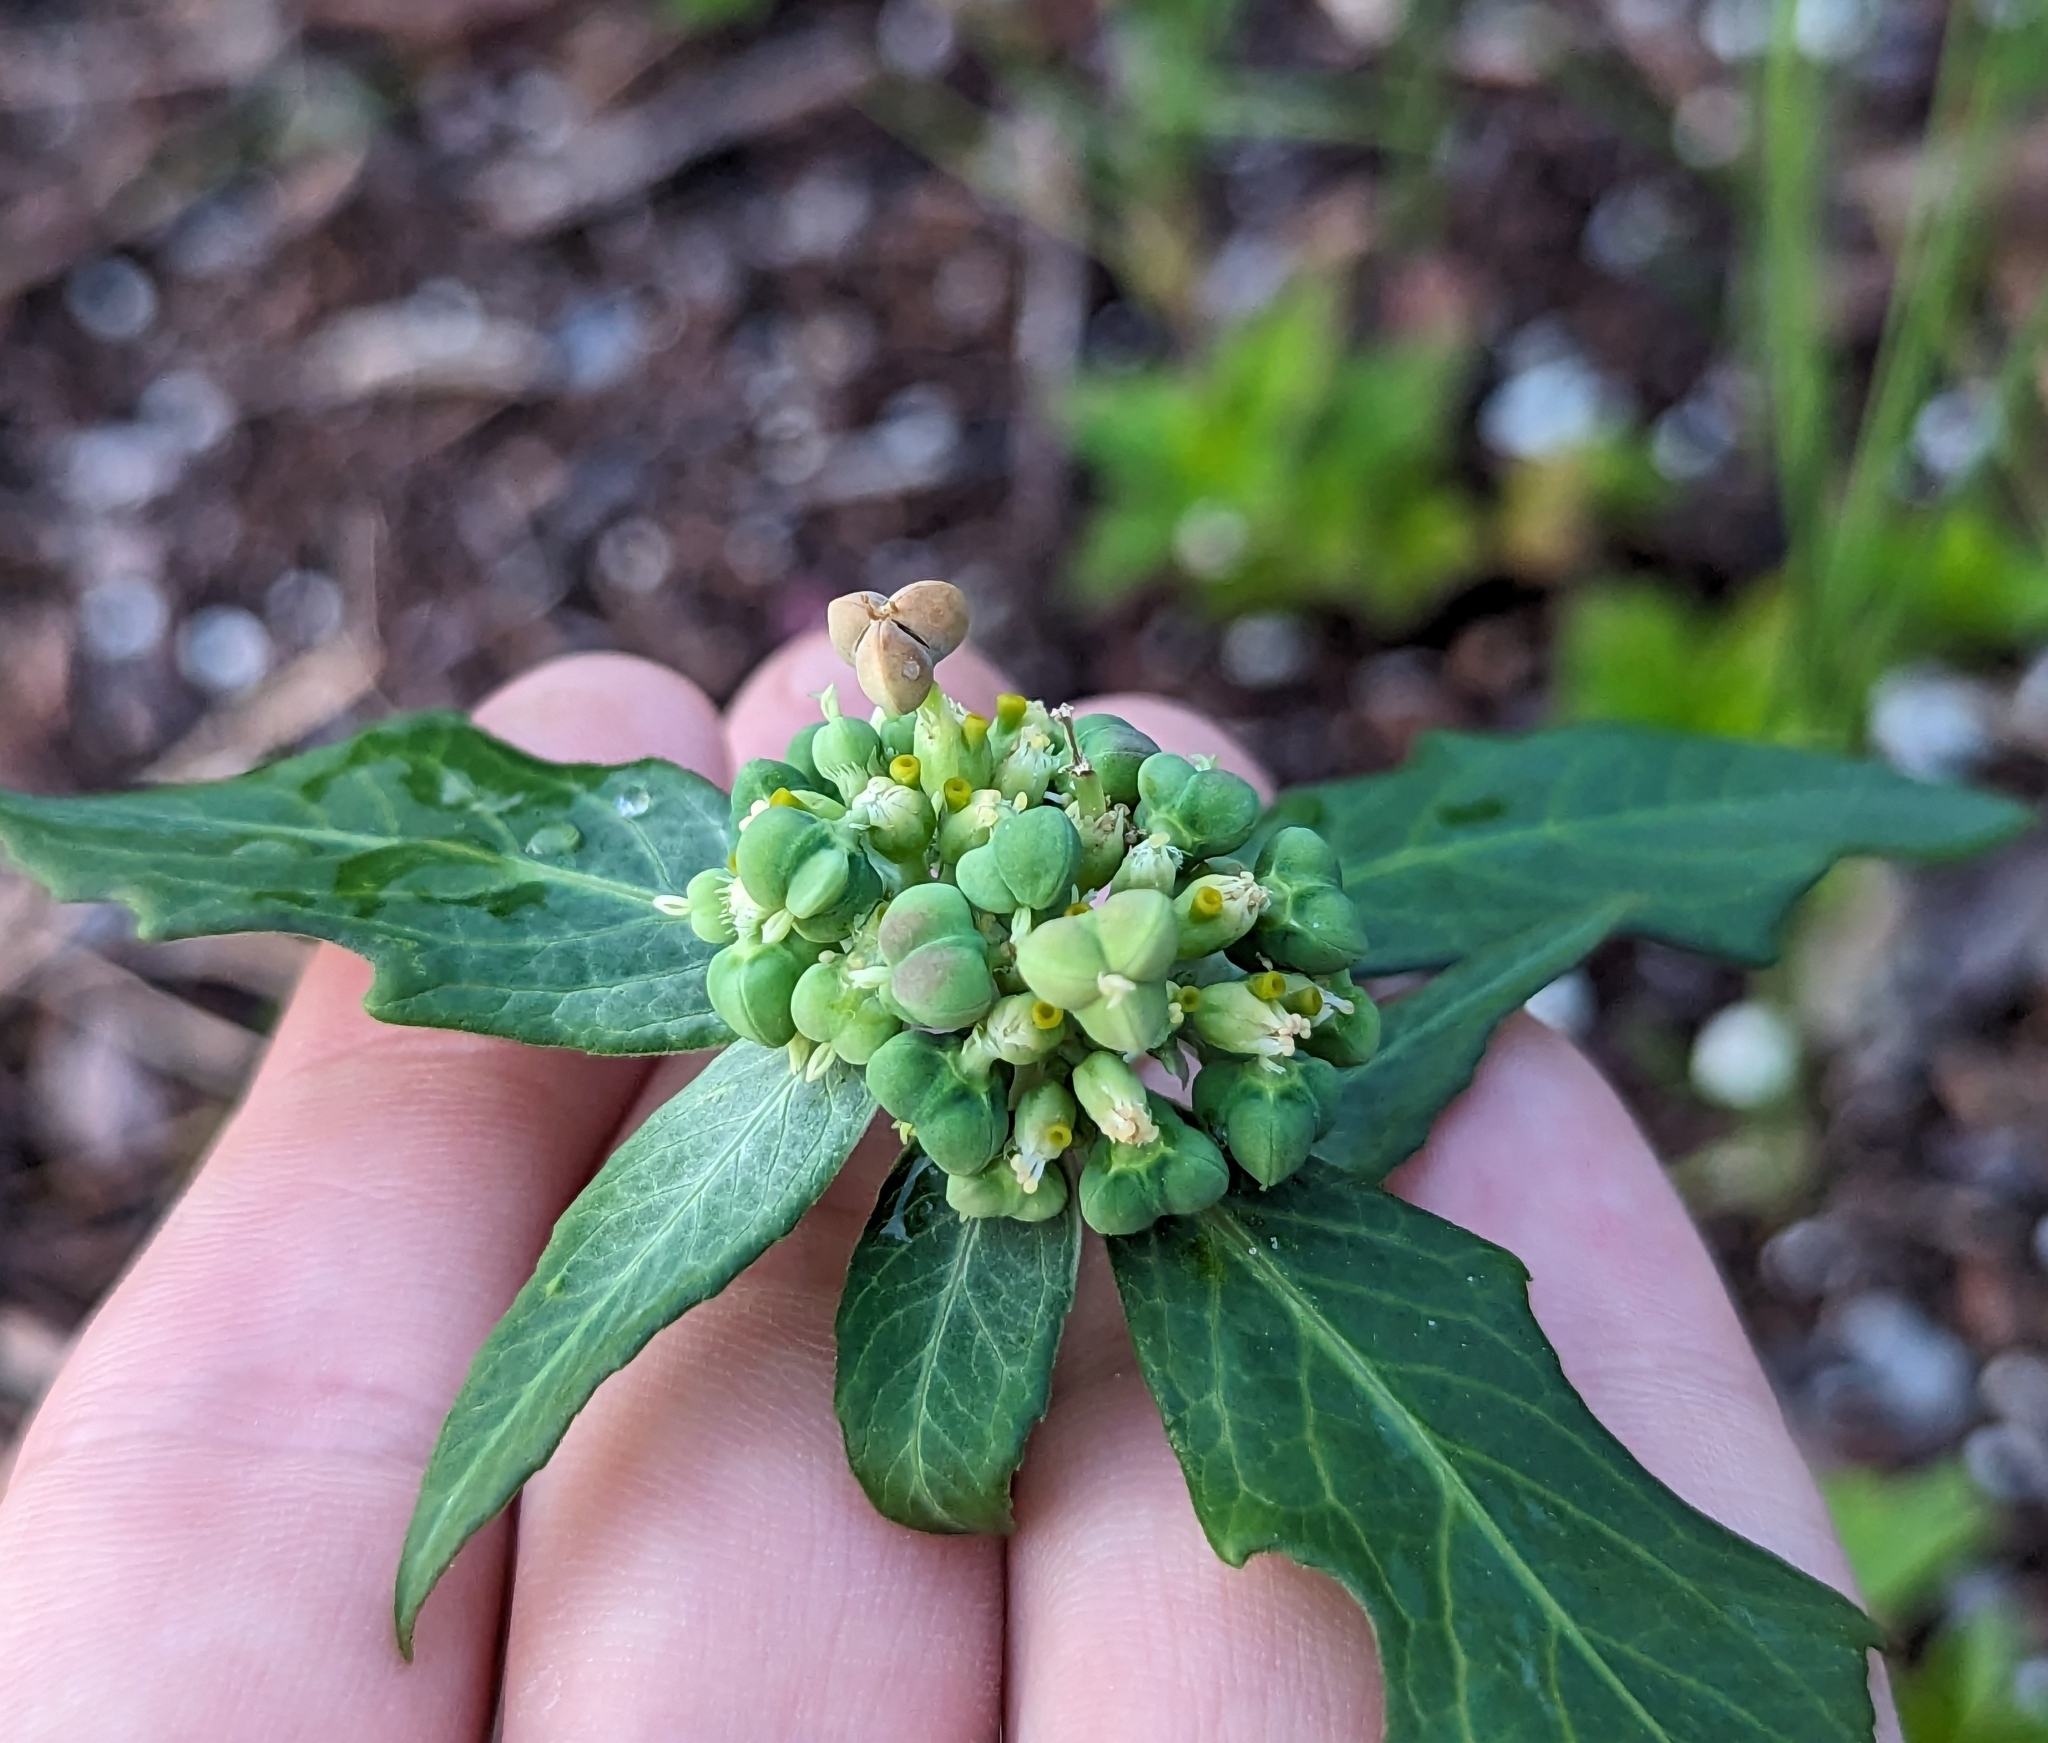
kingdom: Plantae
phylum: Tracheophyta
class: Magnoliopsida
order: Malpighiales
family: Euphorbiaceae
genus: Euphorbia
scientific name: Euphorbia heterophylla
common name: Mexican fireplant
